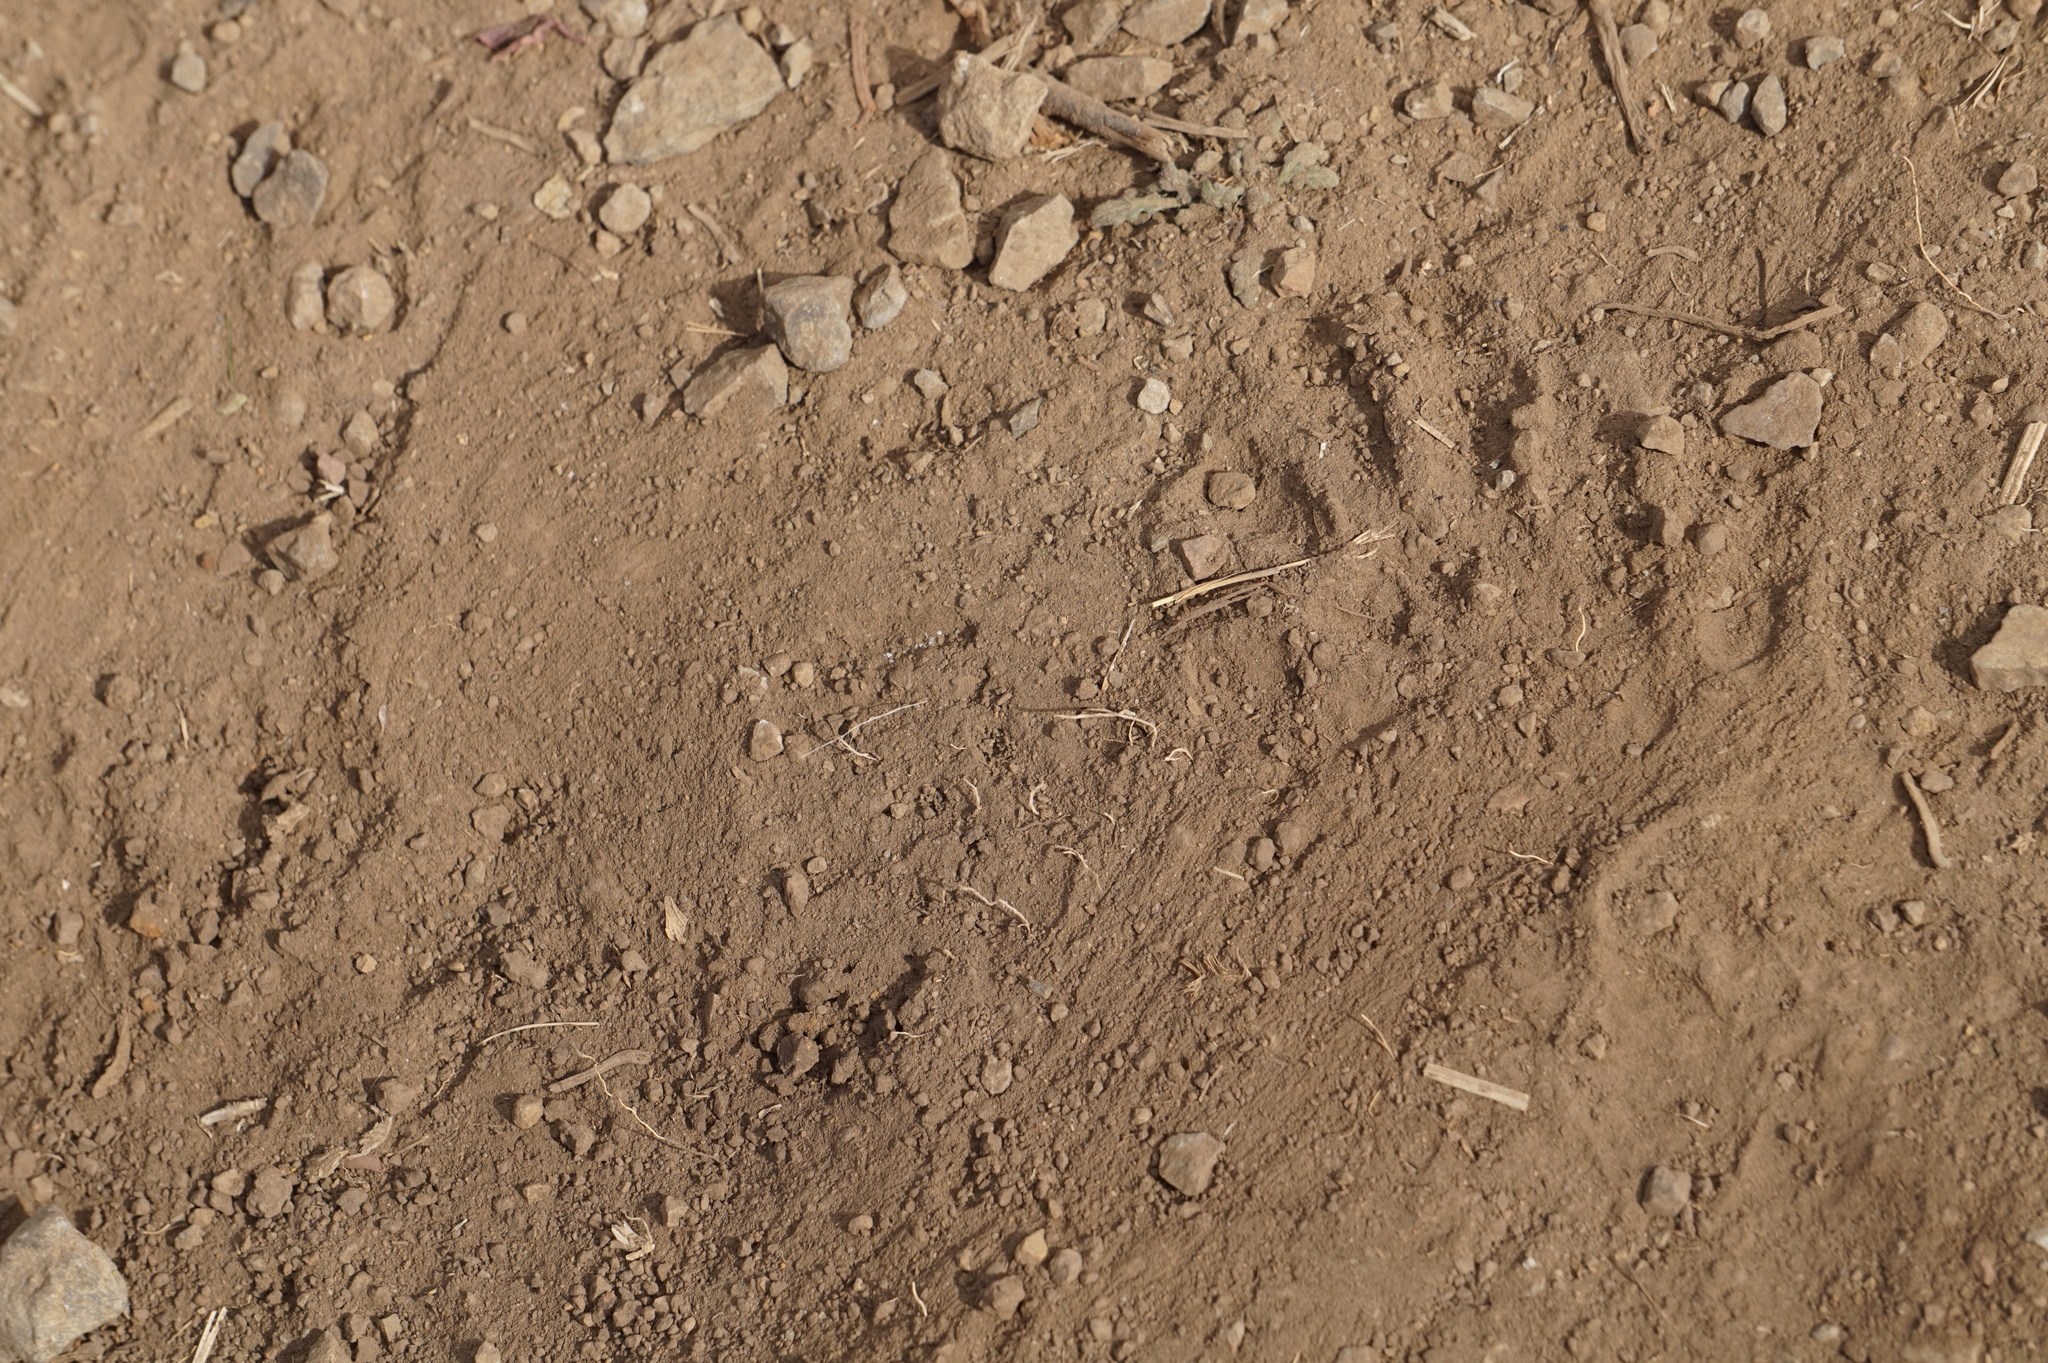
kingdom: Animalia
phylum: Chordata
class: Mammalia
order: Primates
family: Cercopithecidae
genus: Theropithecus
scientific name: Theropithecus gelada
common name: Gelada
